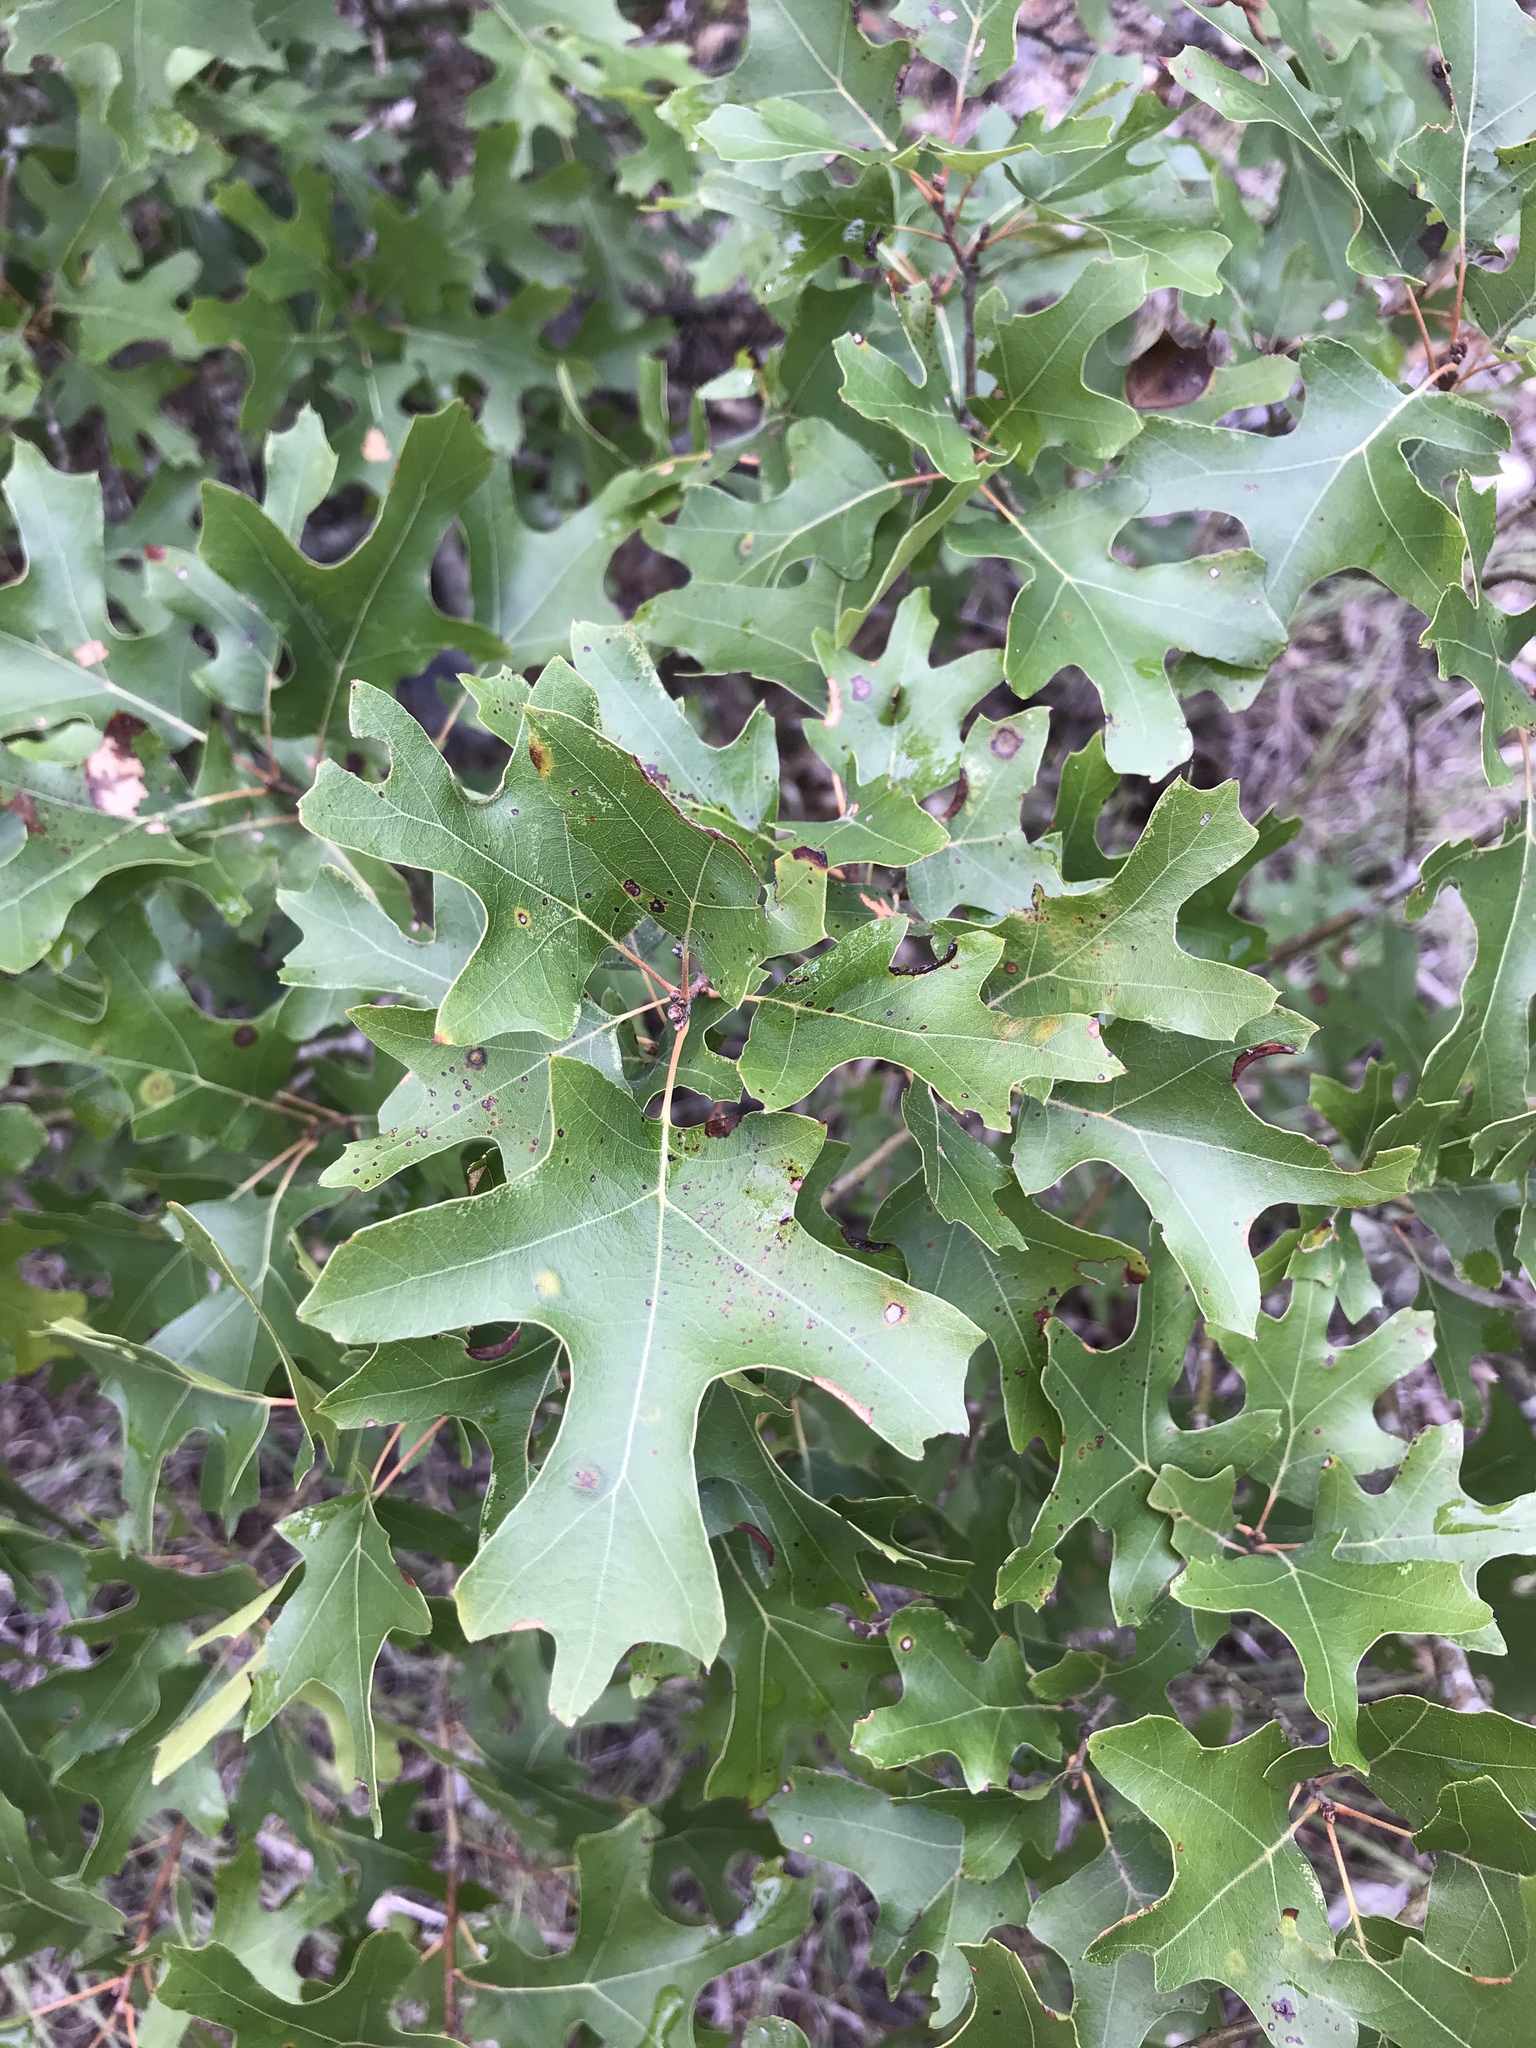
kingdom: Plantae
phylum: Tracheophyta
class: Magnoliopsida
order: Fagales
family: Fagaceae
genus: Quercus
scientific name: Quercus buckleyi
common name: Buckley oak
